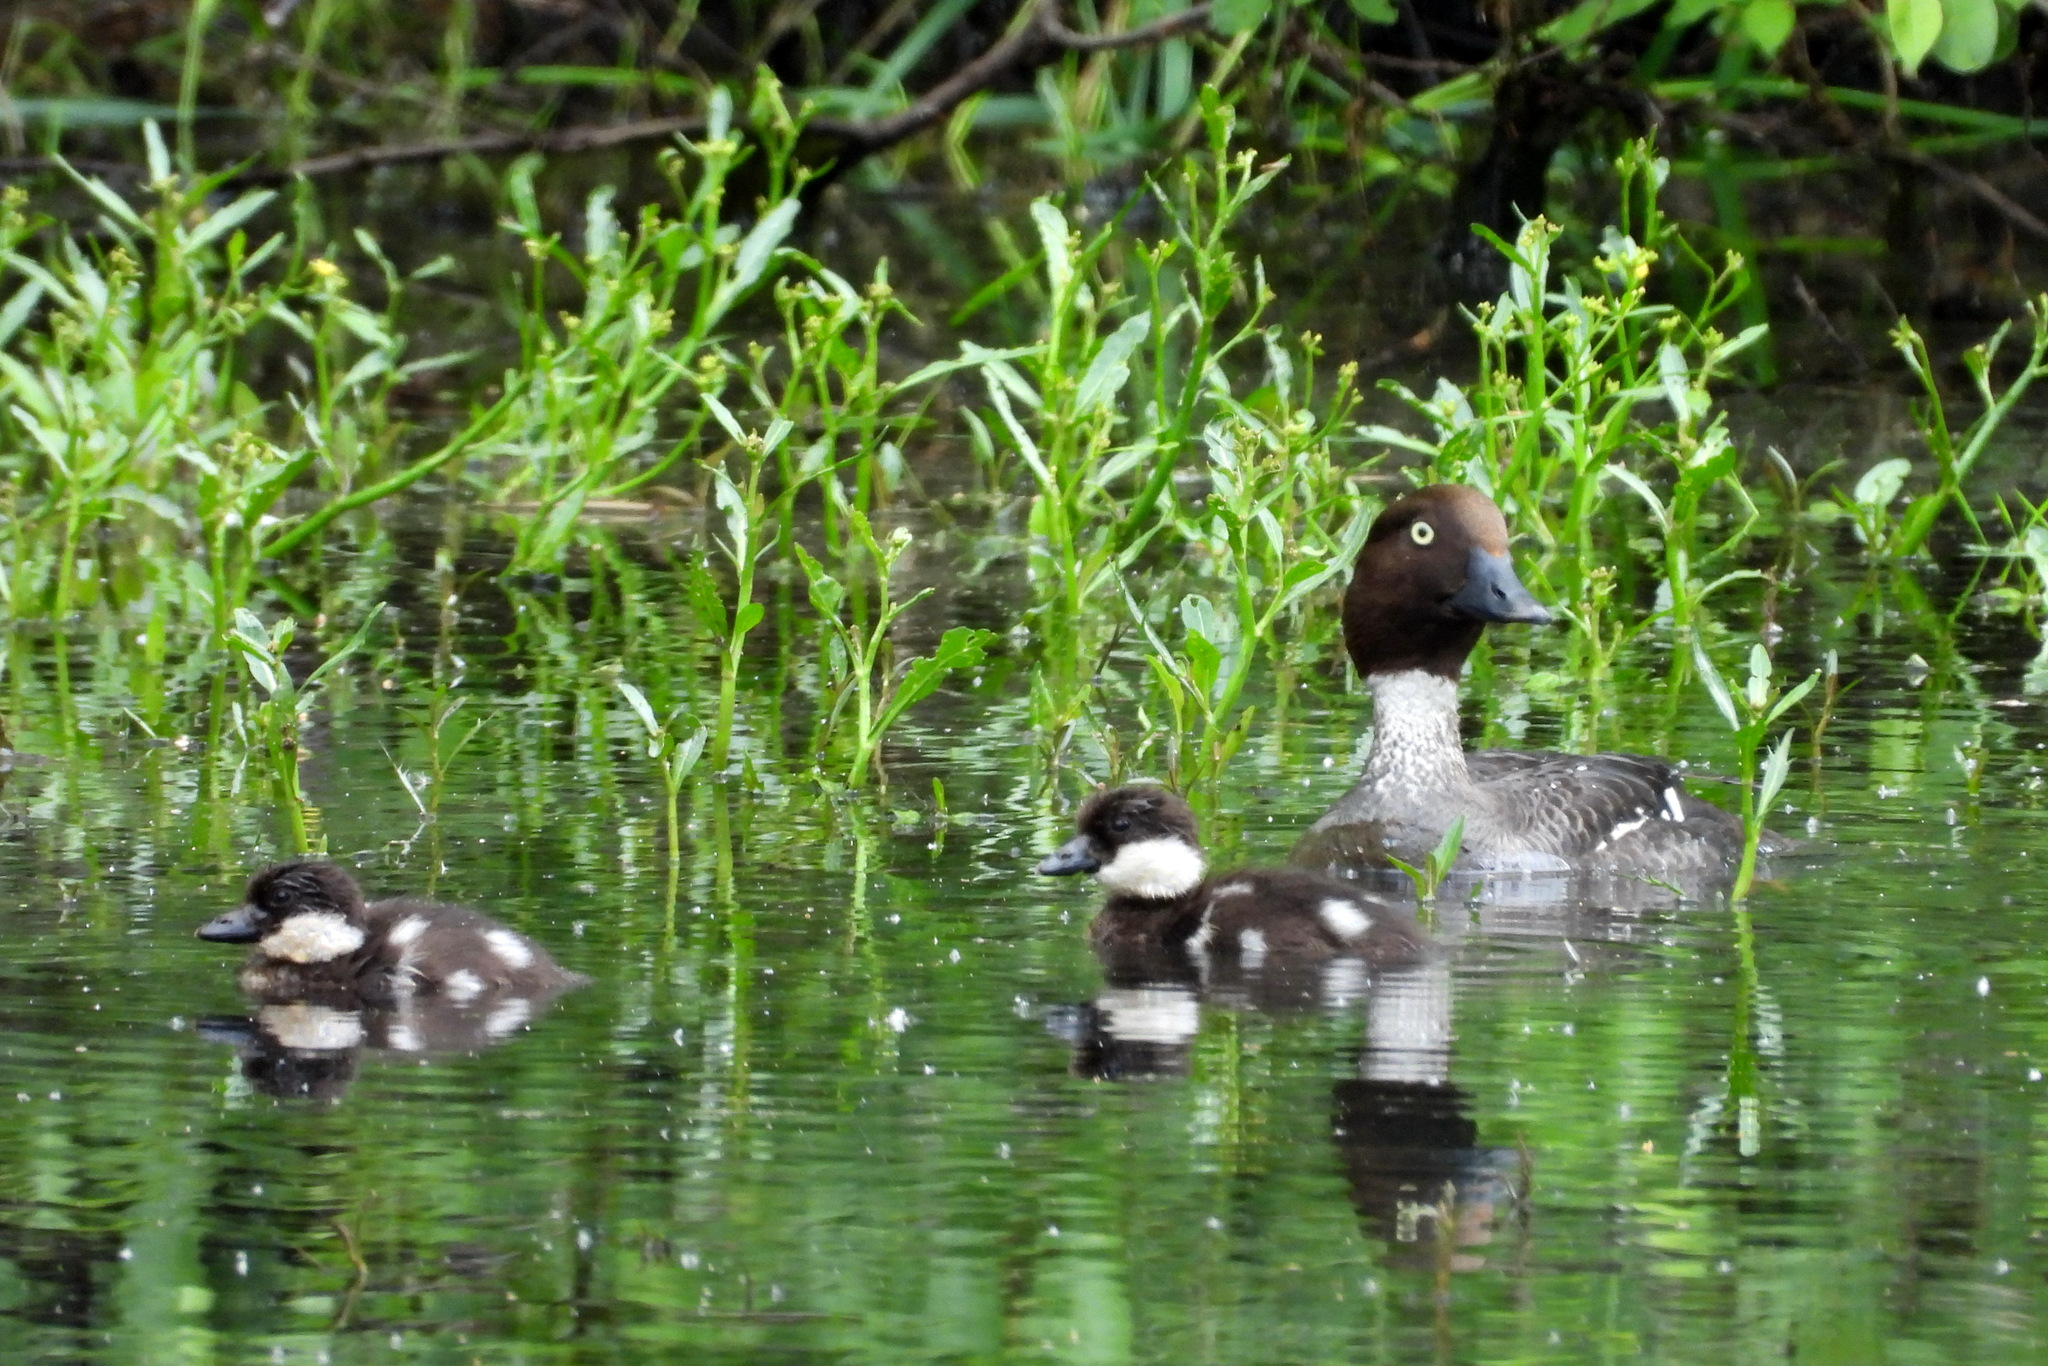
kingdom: Animalia
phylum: Chordata
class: Aves
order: Anseriformes
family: Anatidae
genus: Bucephala
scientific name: Bucephala clangula
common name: Common goldeneye
